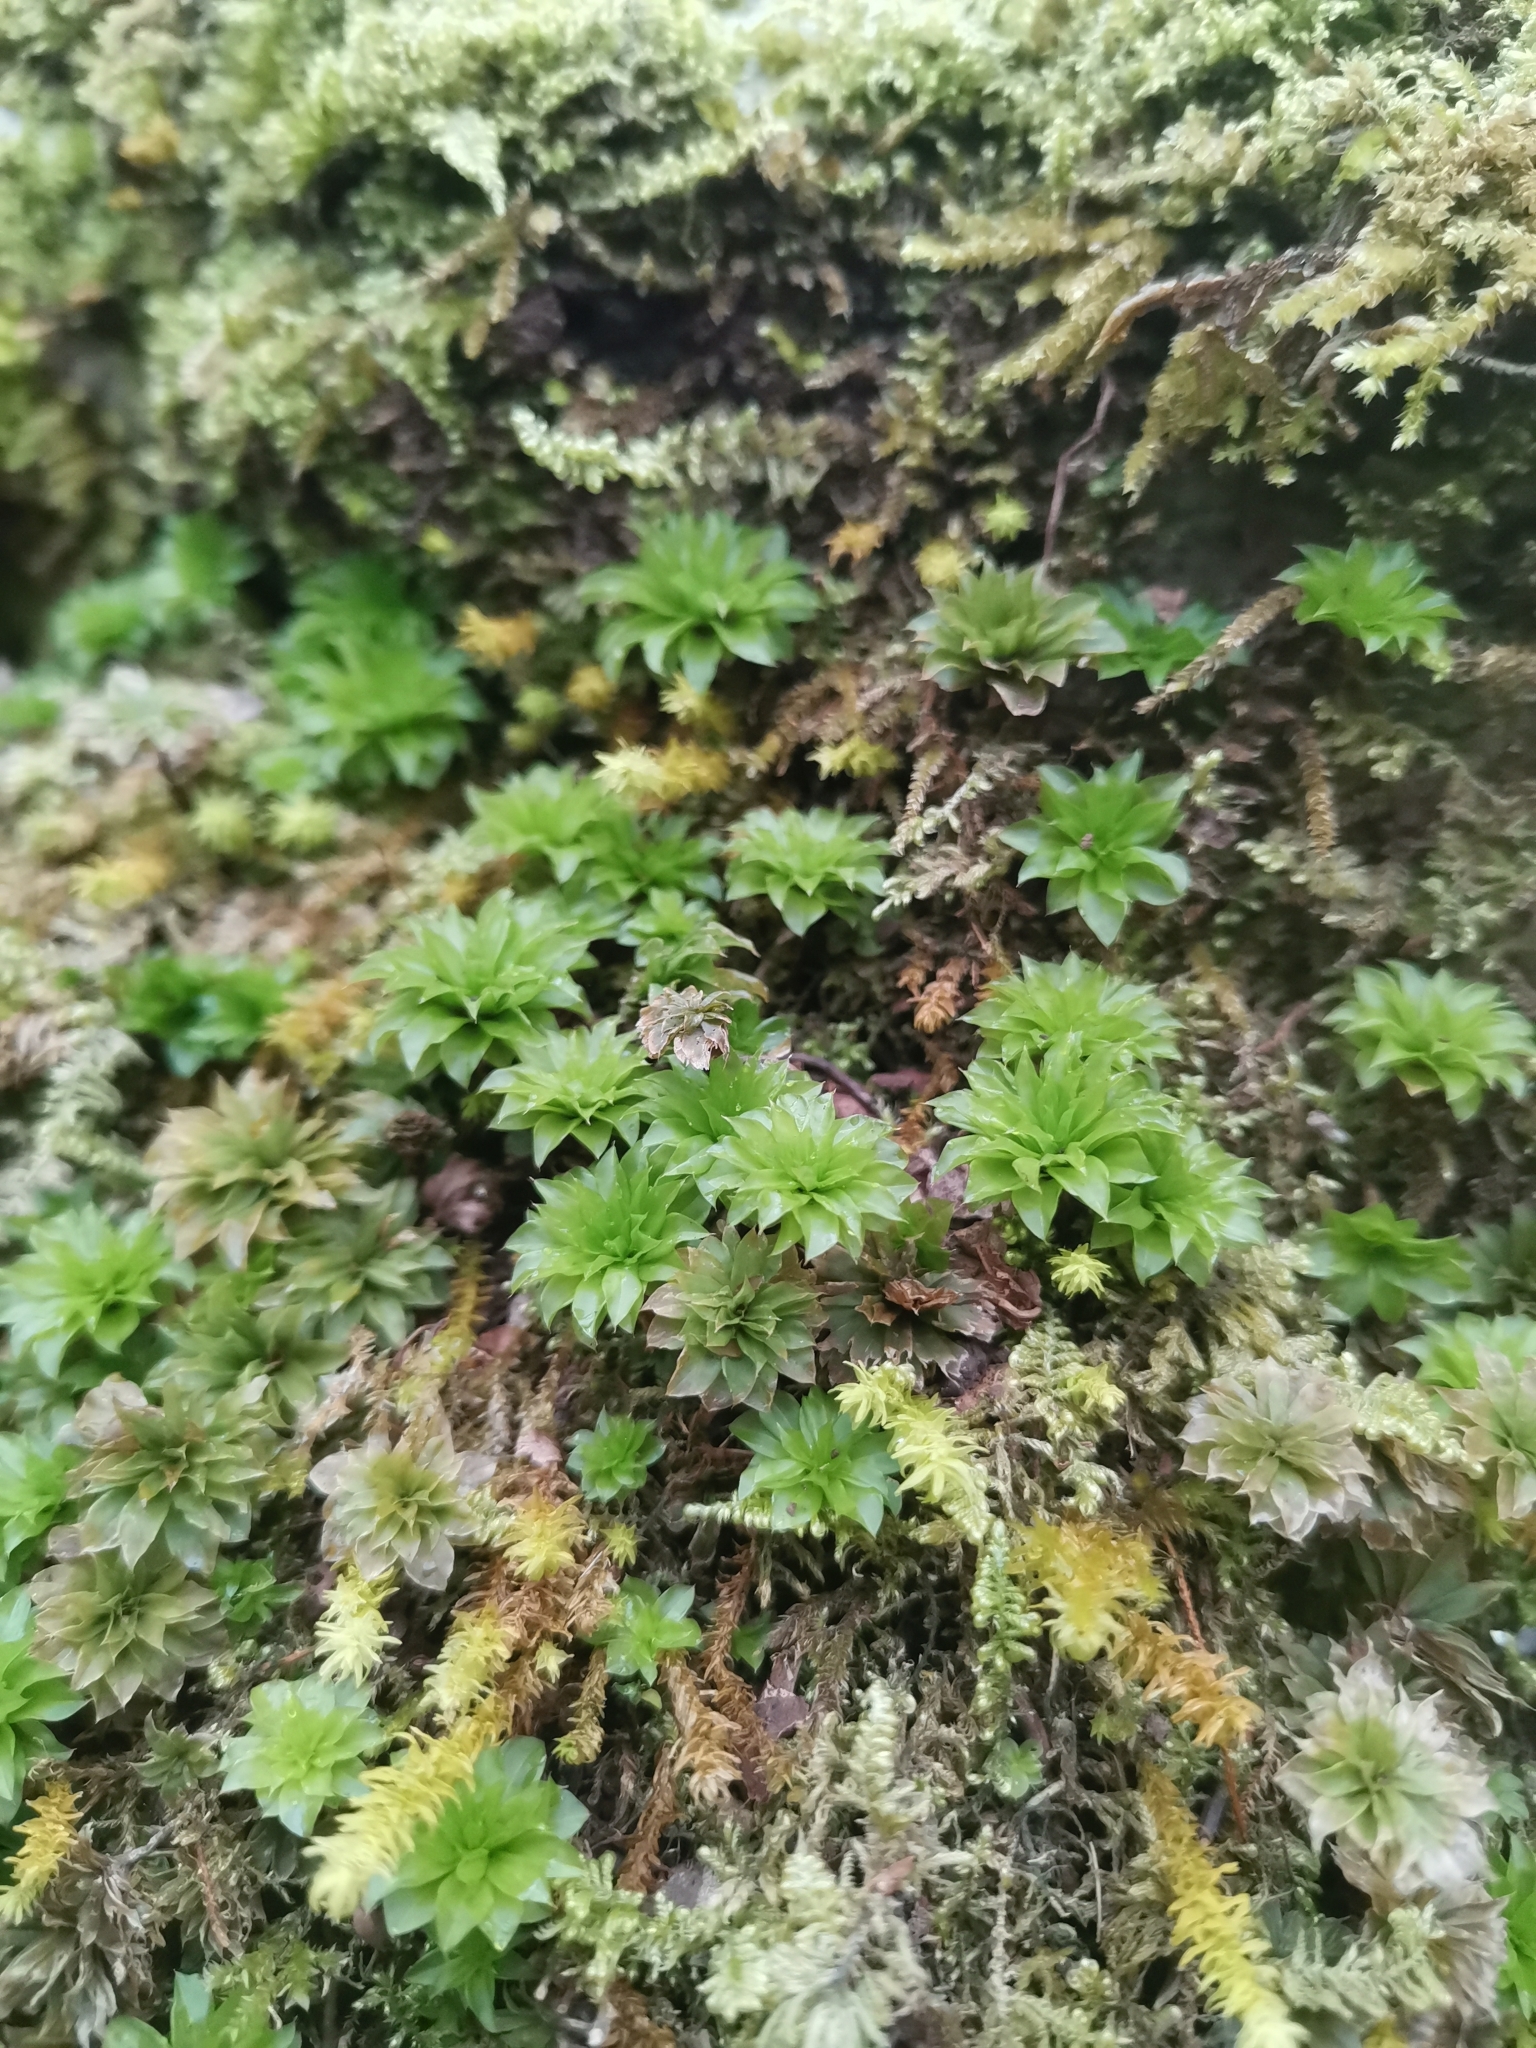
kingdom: Plantae
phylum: Bryophyta
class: Bryopsida
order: Bryales
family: Bryaceae
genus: Rhodobryum
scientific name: Rhodobryum ontariense
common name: Ontario rhodobryum moss
